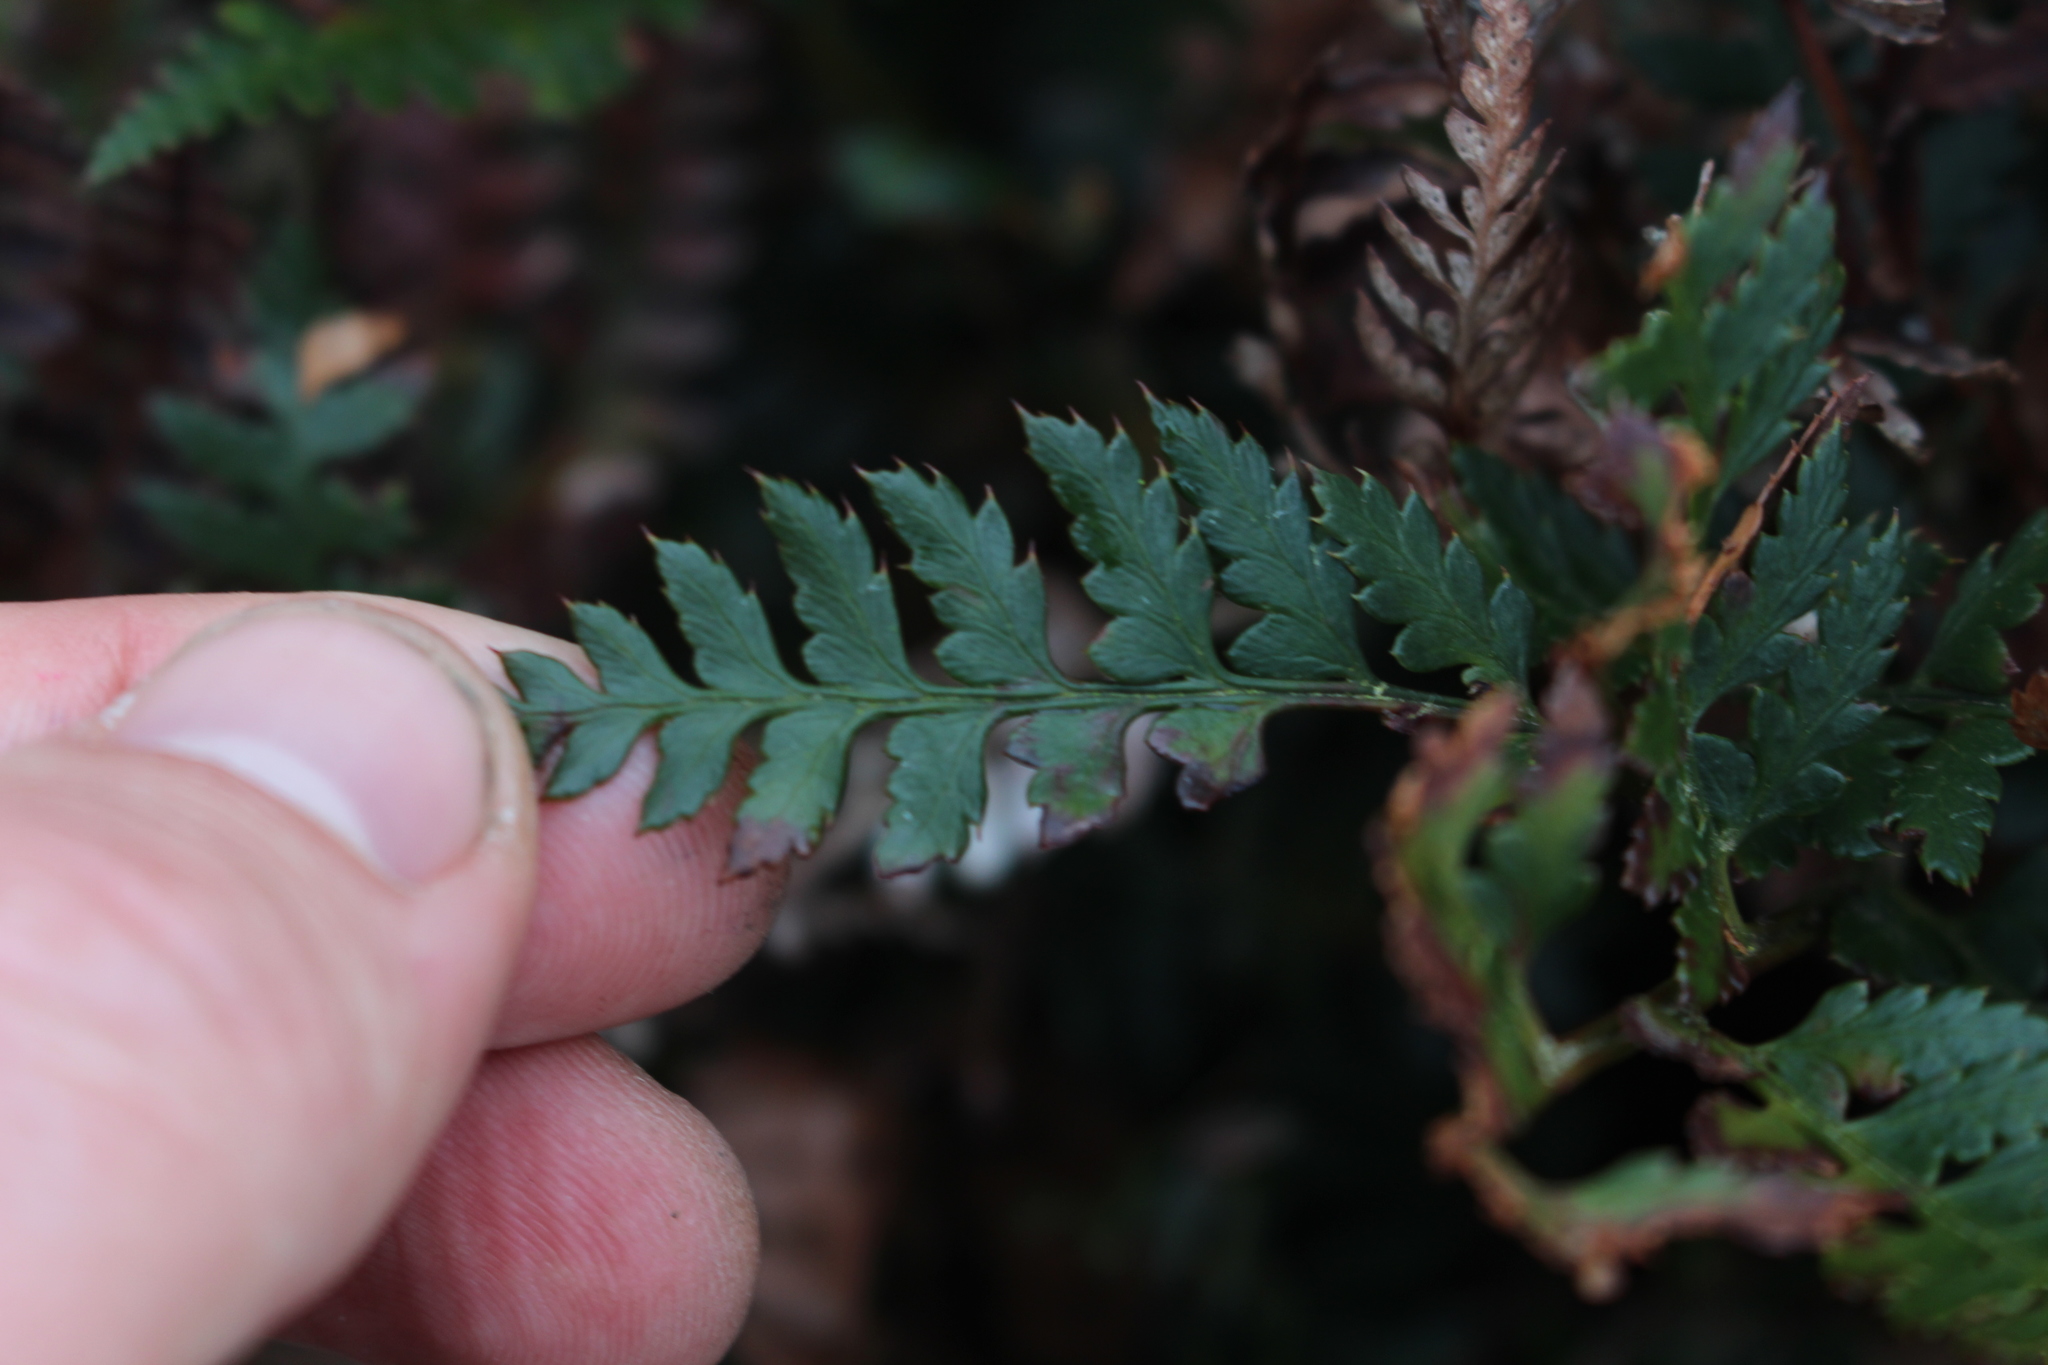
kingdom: Plantae
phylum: Tracheophyta
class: Polypodiopsida
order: Polypodiales
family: Dryopteridaceae
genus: Polystichum
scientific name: Polystichum oculatum
